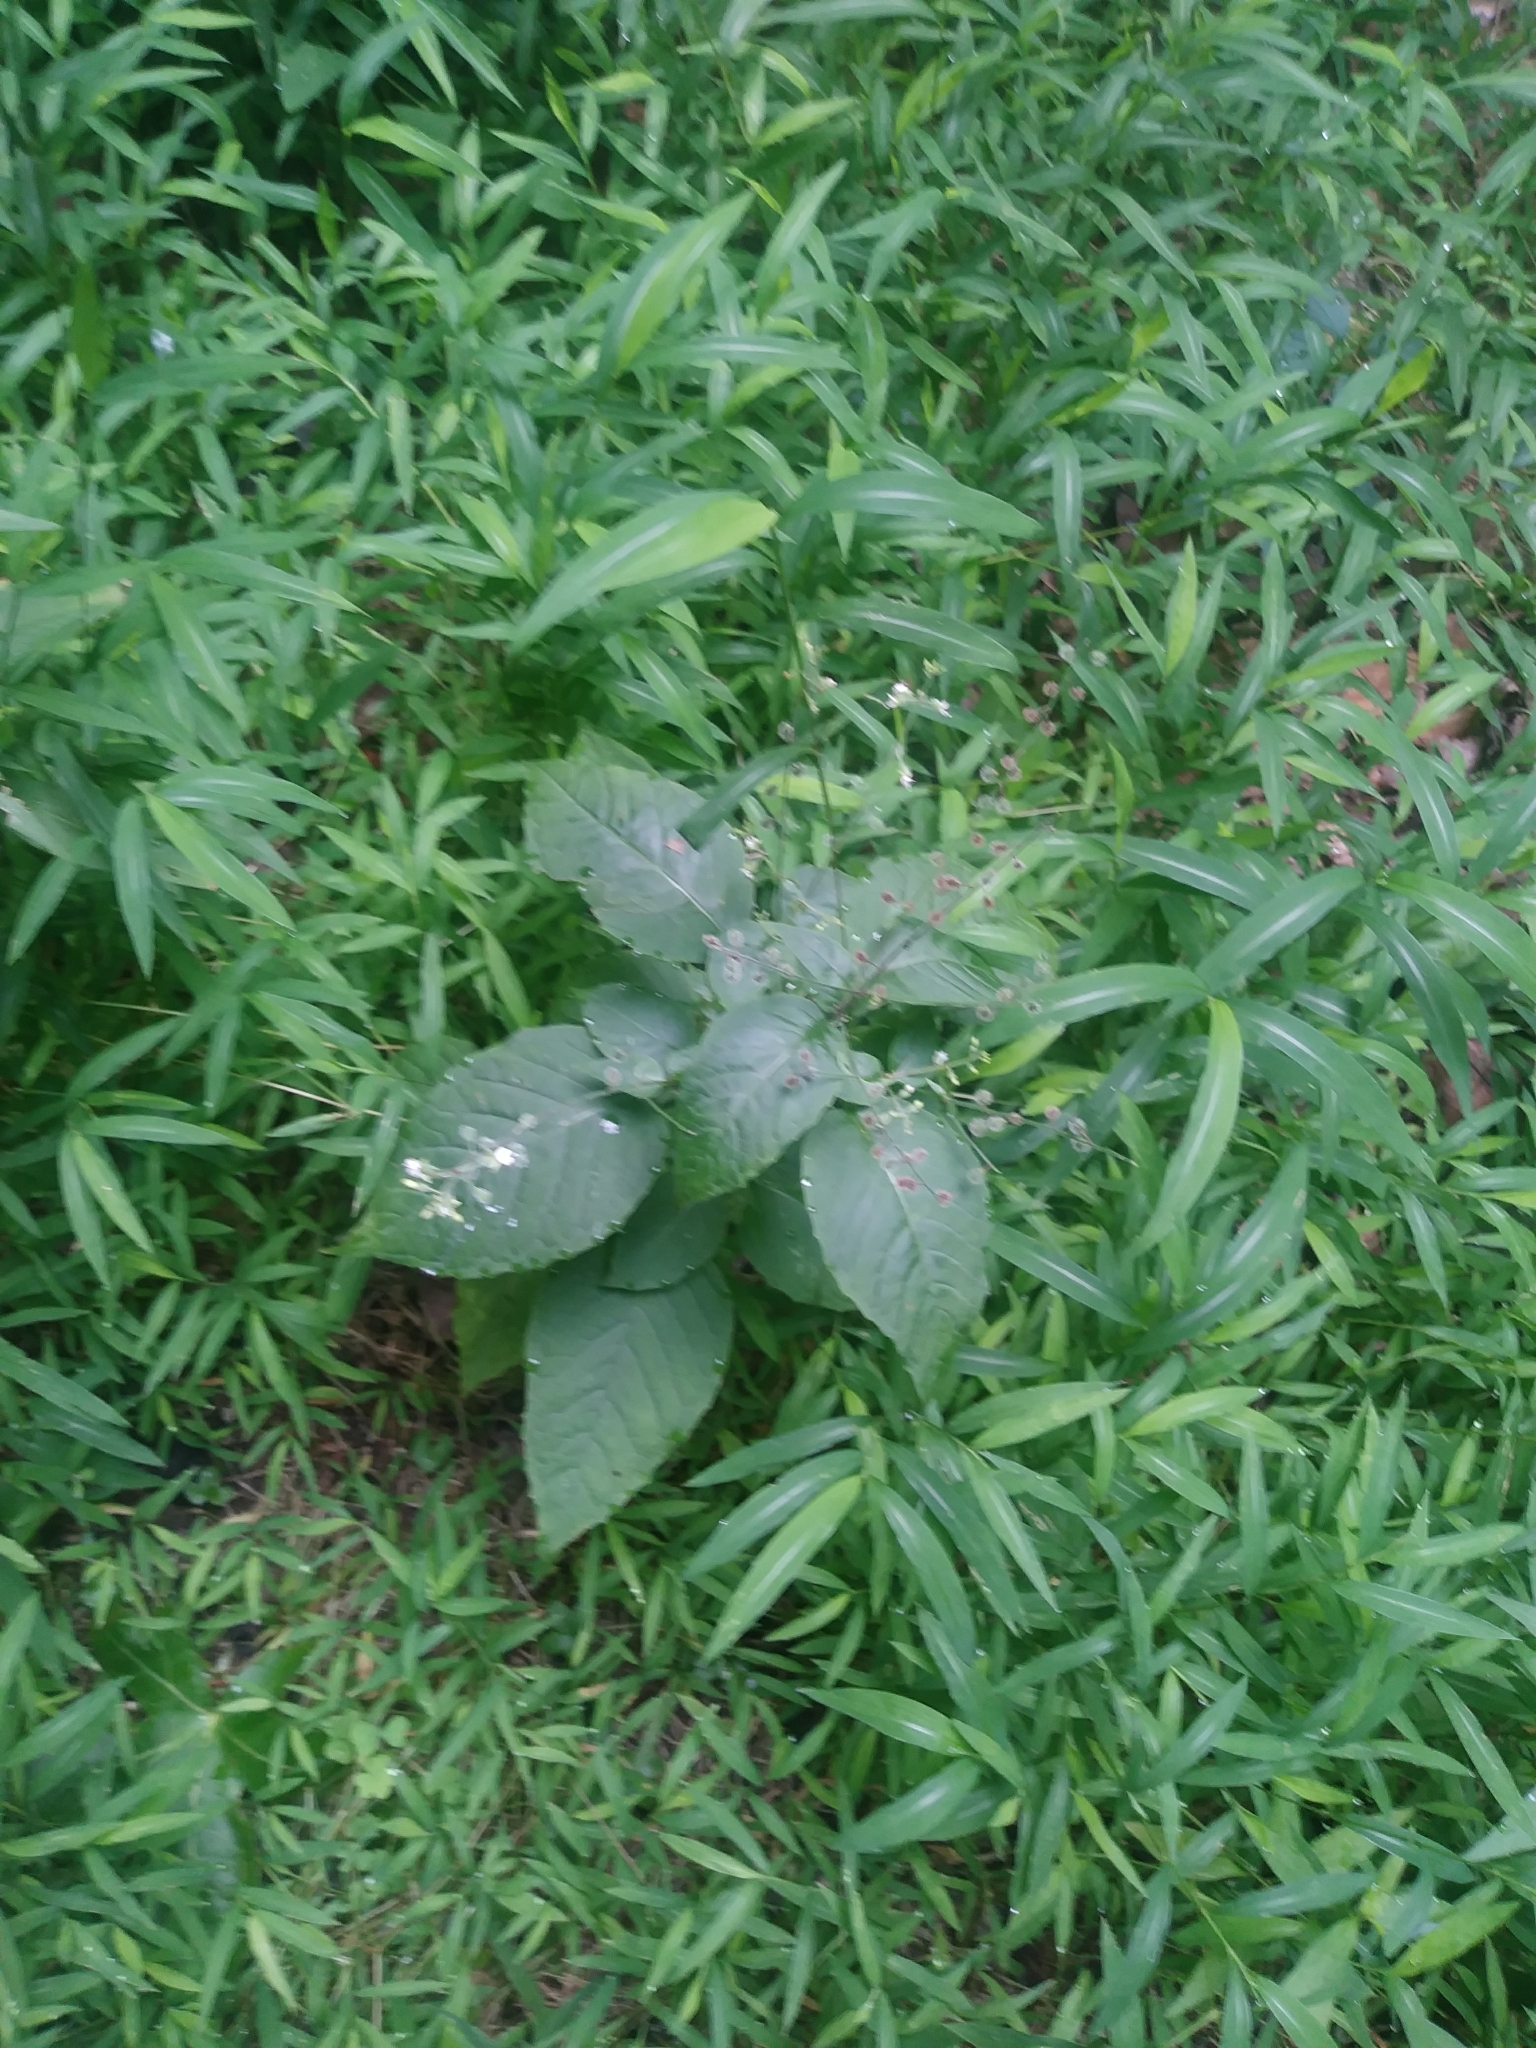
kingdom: Plantae
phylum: Tracheophyta
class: Magnoliopsida
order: Myrtales
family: Onagraceae
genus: Circaea
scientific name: Circaea canadensis
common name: Broad-leaved enchanter's nightshade
